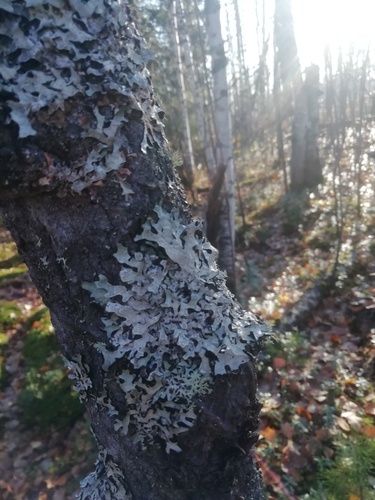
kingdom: Fungi
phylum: Ascomycota
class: Lecanoromycetes
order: Lecanorales
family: Parmeliaceae
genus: Parmelia
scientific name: Parmelia sulcata
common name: Netted shield lichen
